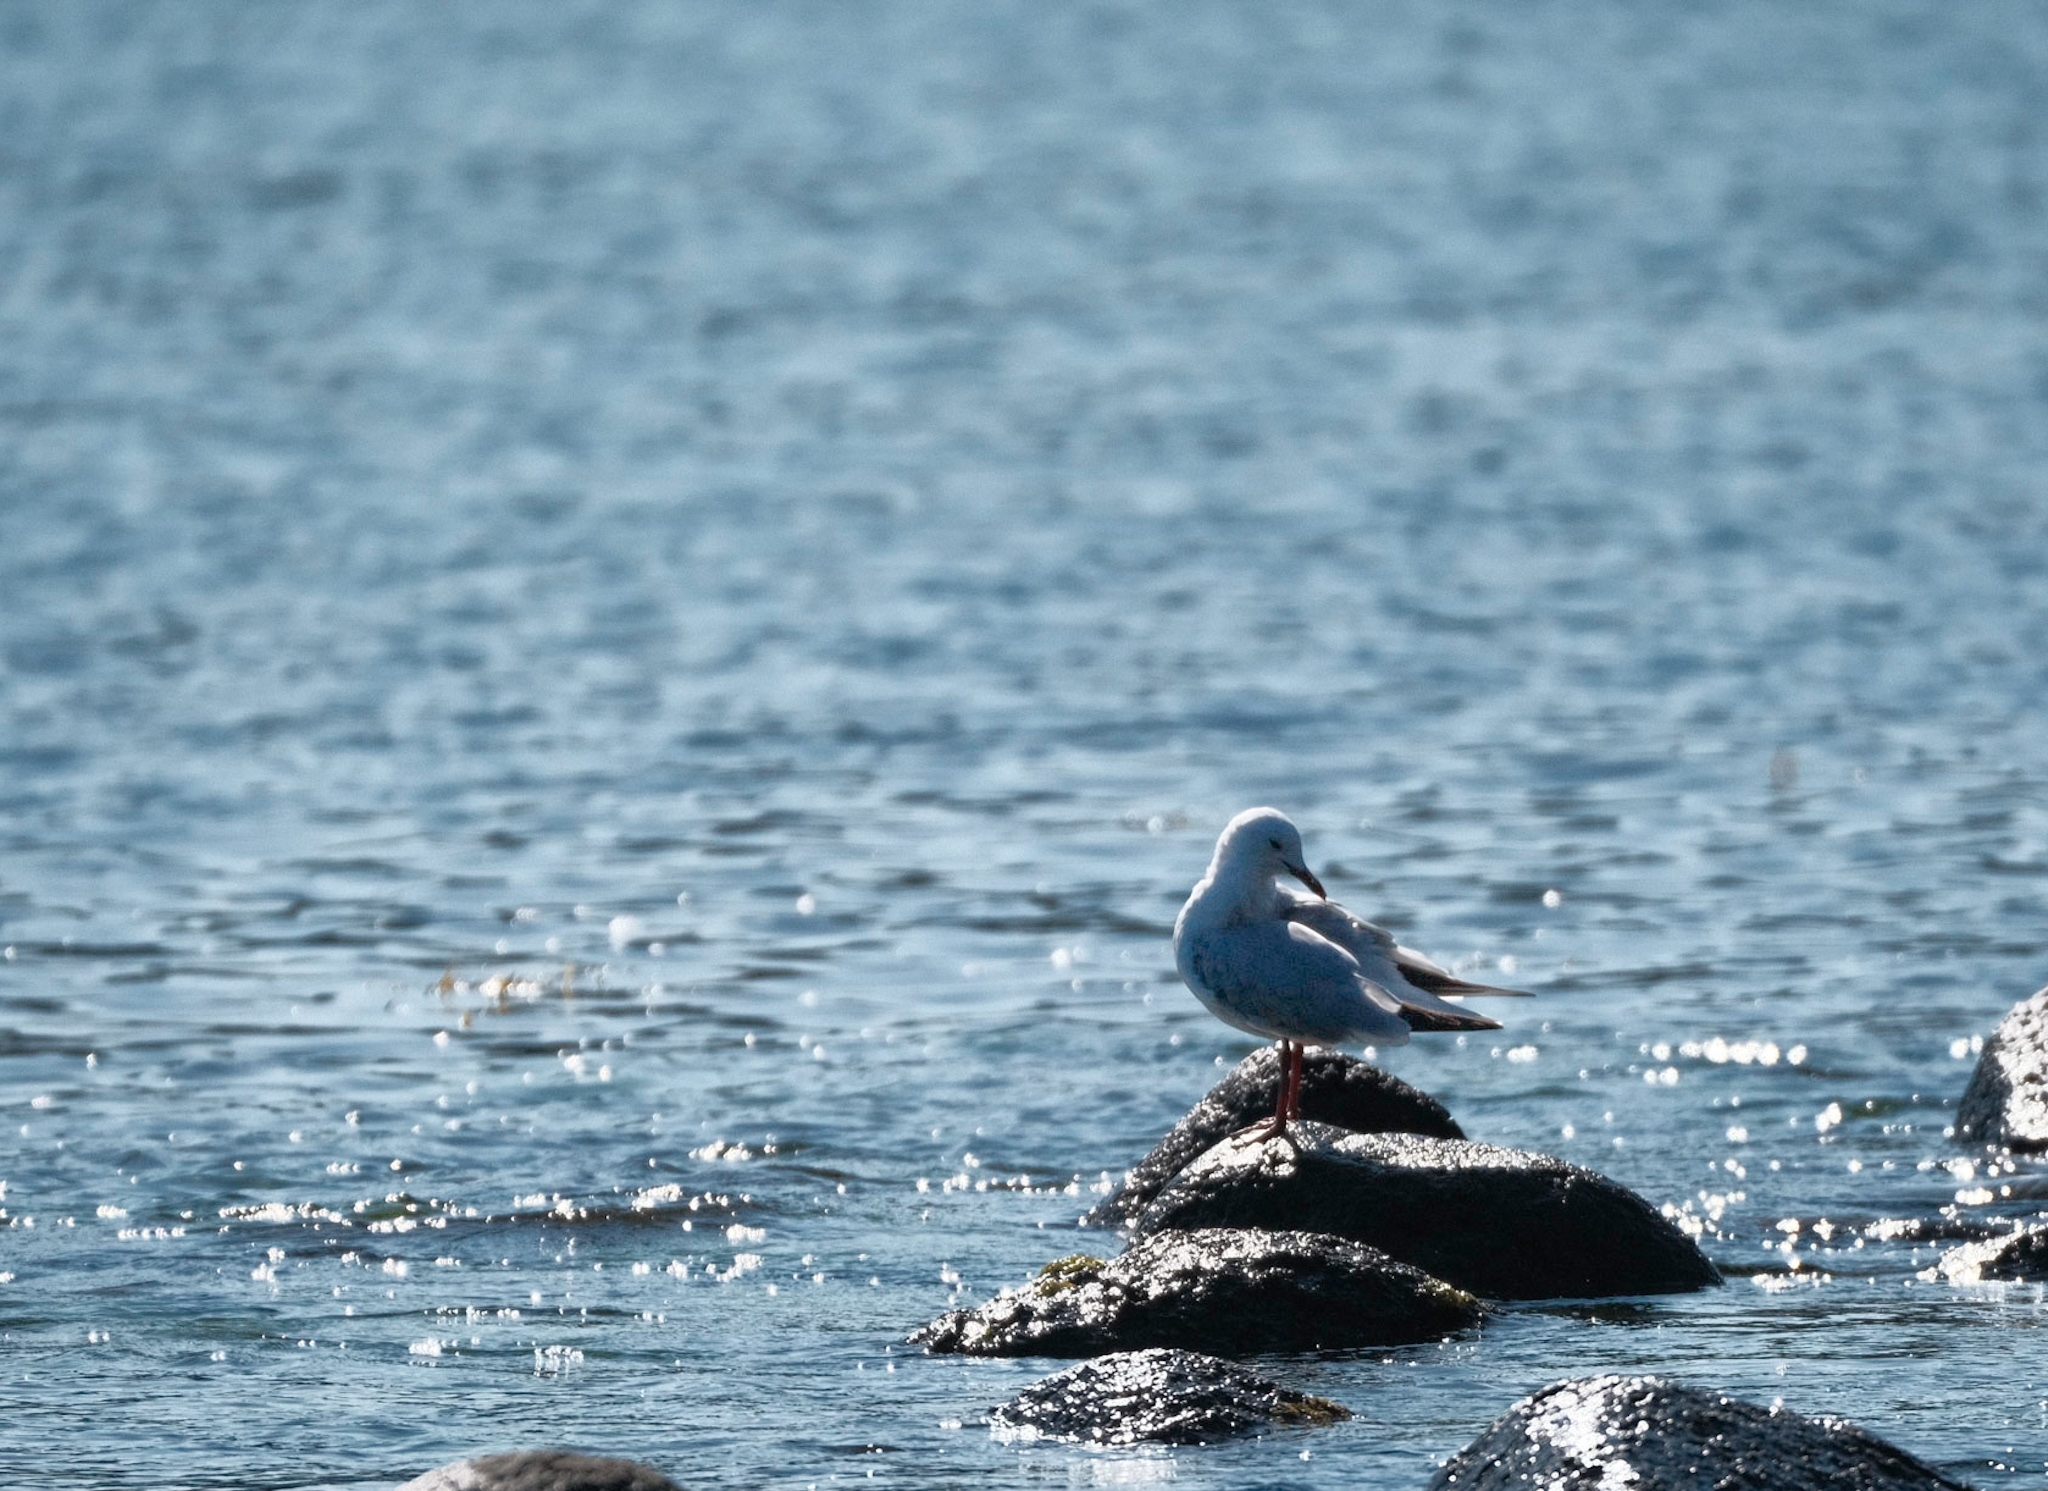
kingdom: Animalia
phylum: Chordata
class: Aves
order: Charadriiformes
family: Laridae
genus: Chroicocephalus
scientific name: Chroicocephalus novaehollandiae
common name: Silver gull
